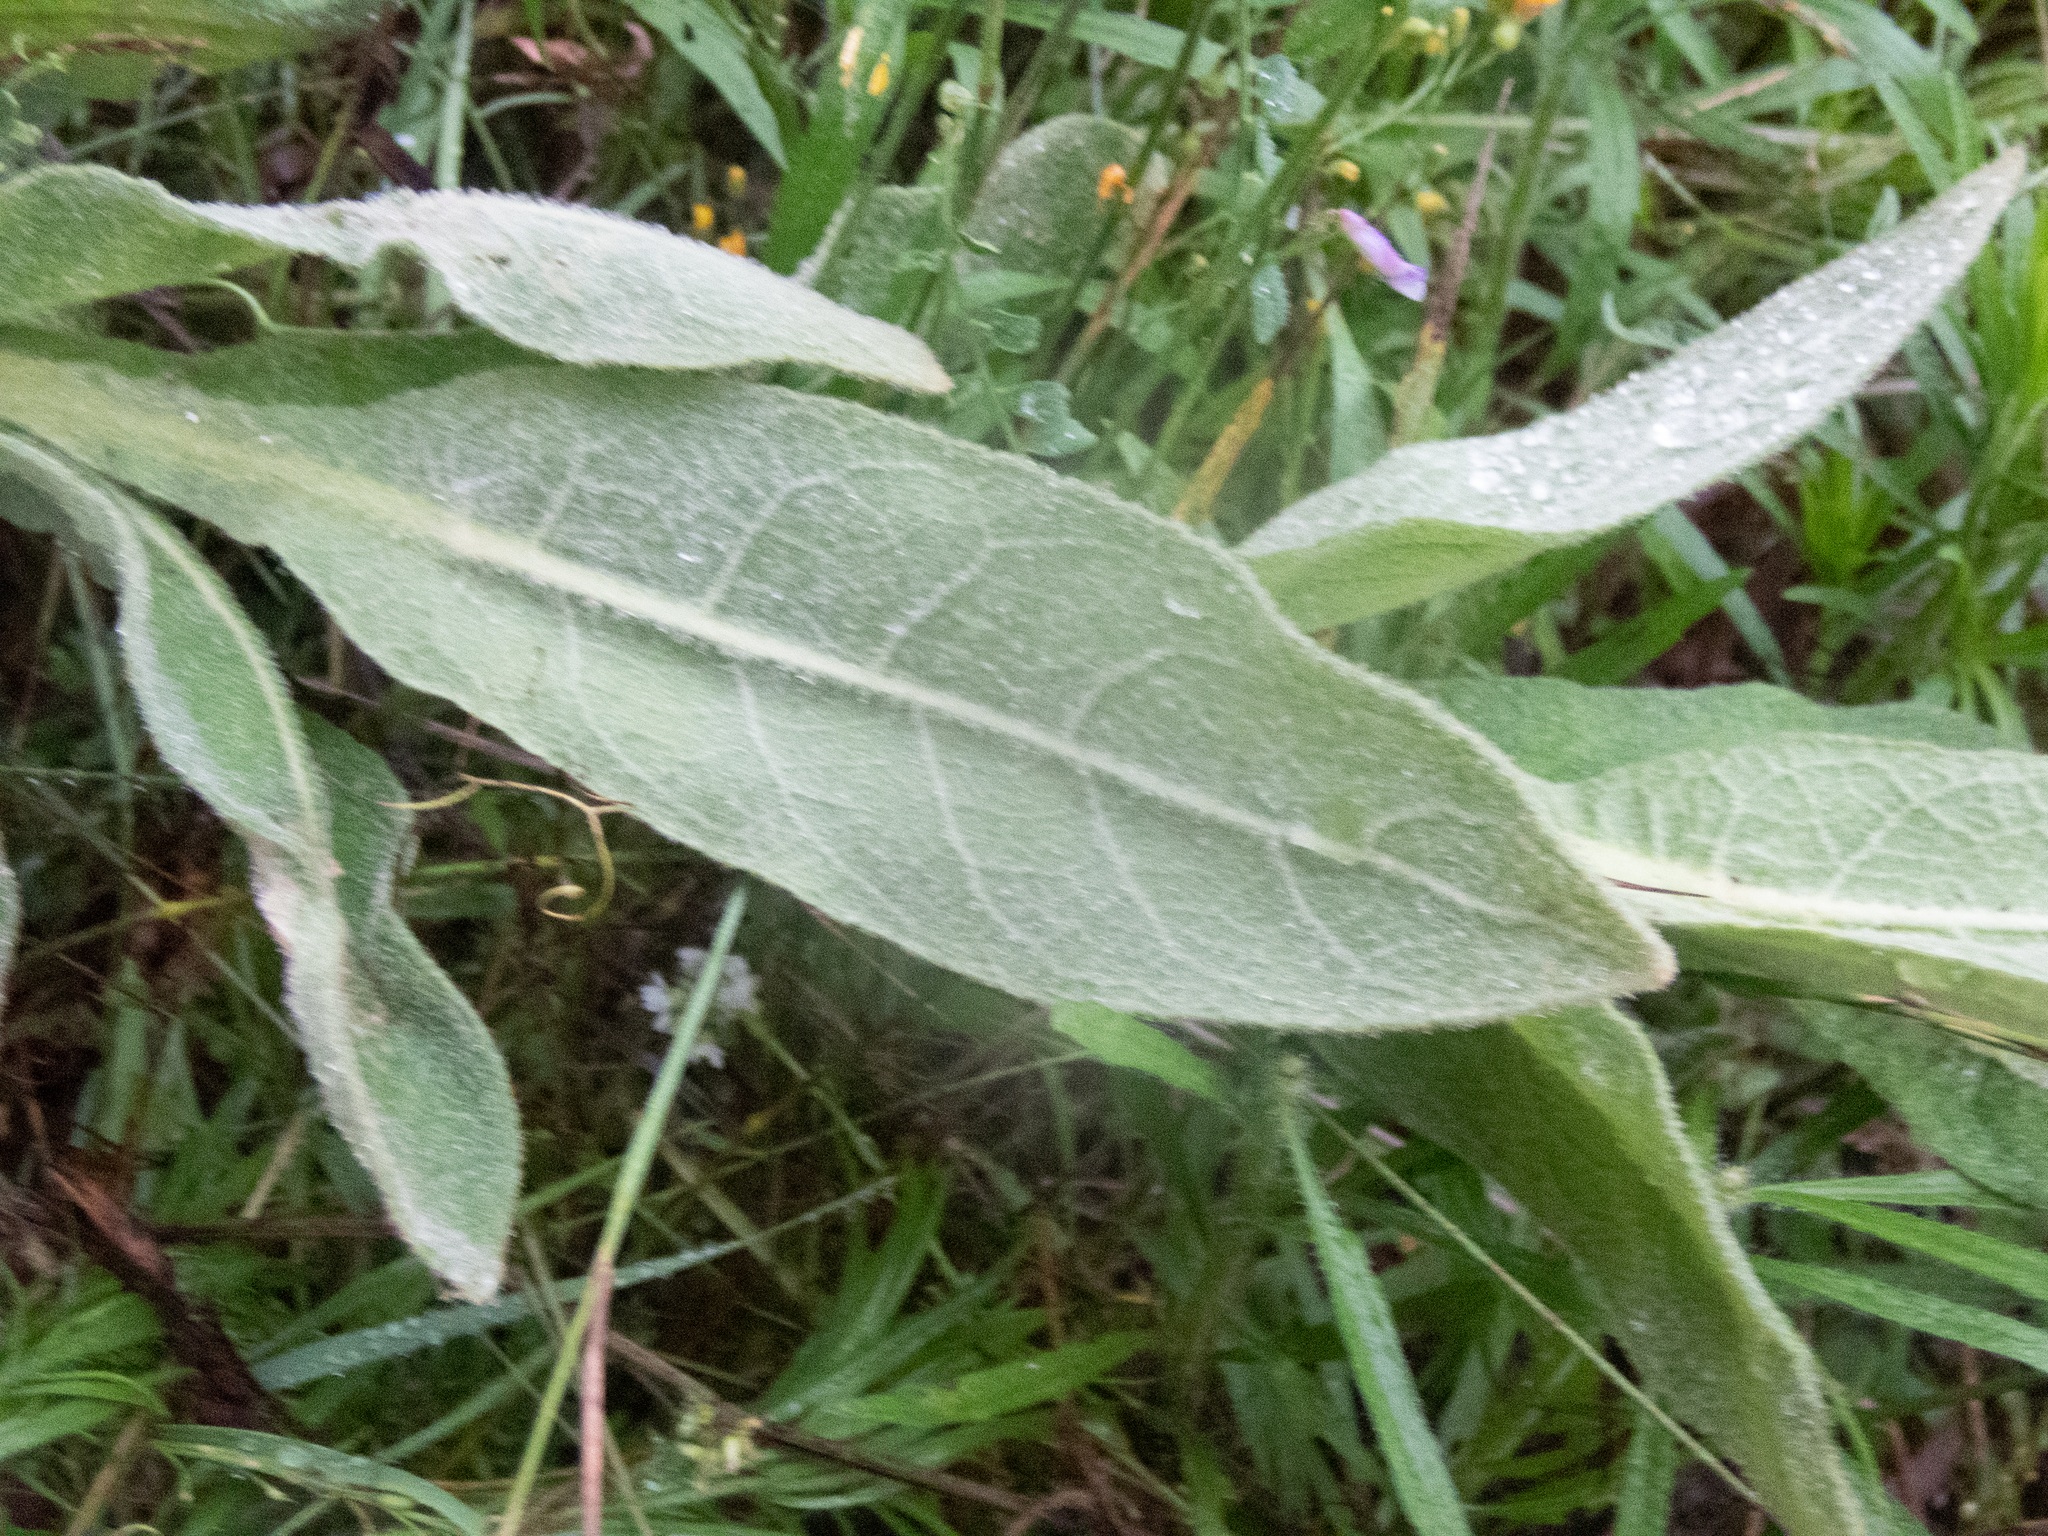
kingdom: Plantae
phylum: Tracheophyta
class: Magnoliopsida
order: Lamiales
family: Scrophulariaceae
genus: Verbascum
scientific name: Verbascum thapsus
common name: Common mullein
